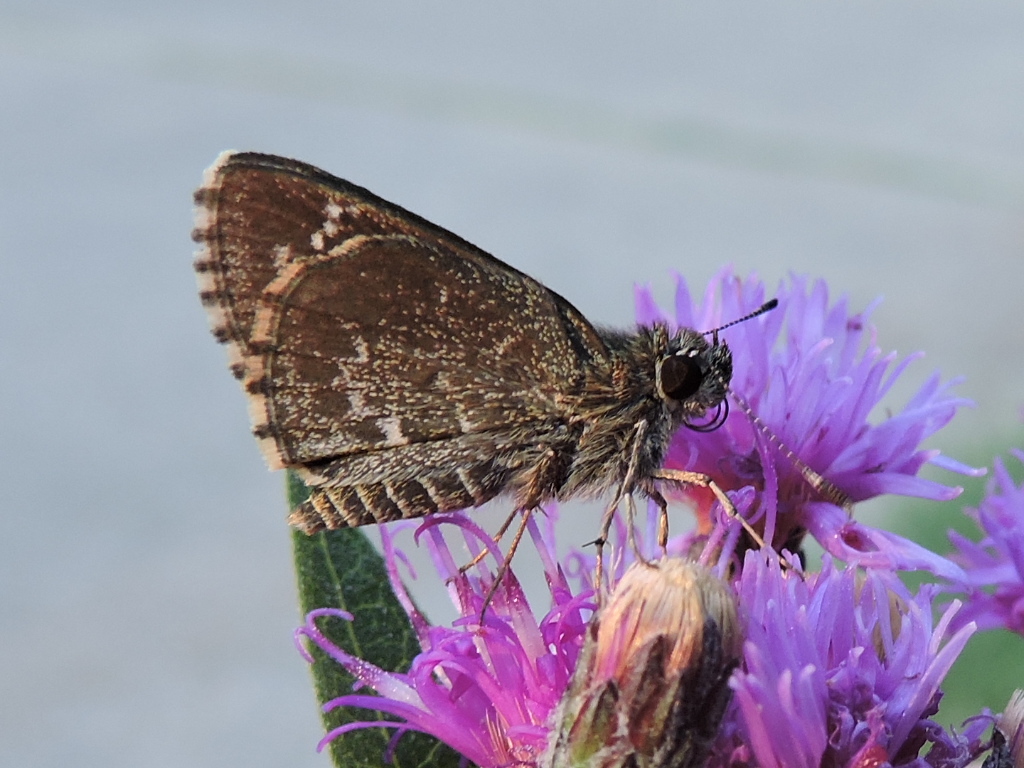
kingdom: Animalia
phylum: Arthropoda
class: Insecta
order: Lepidoptera
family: Hesperiidae
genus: Mastor
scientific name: Mastor celia
